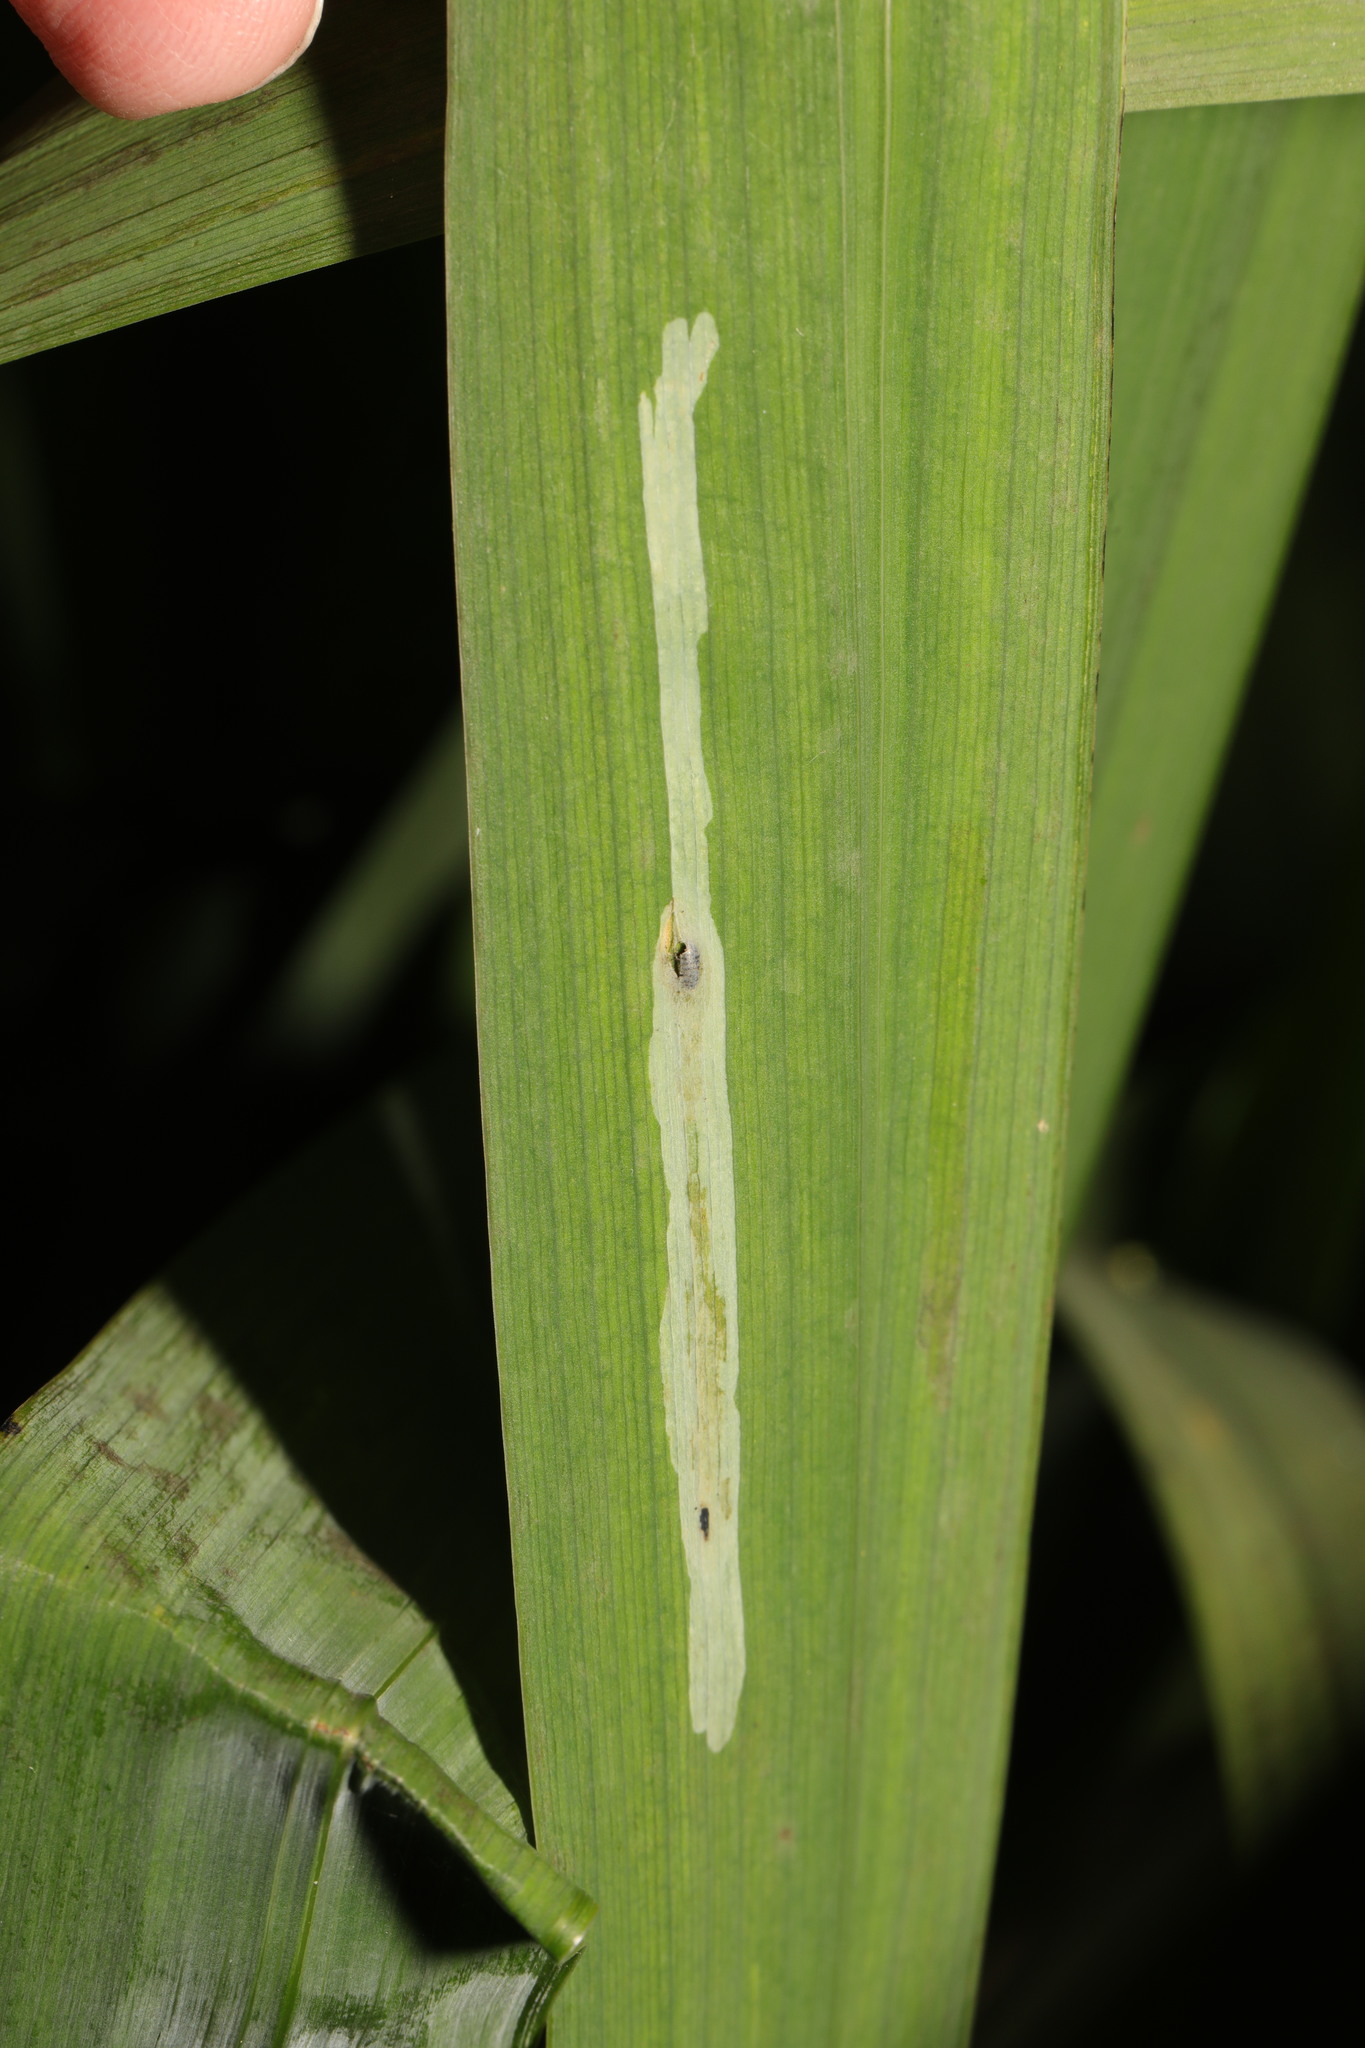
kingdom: Animalia
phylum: Arthropoda
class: Insecta
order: Diptera
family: Agromyzidae
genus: Cerodontha
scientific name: Cerodontha ircos
